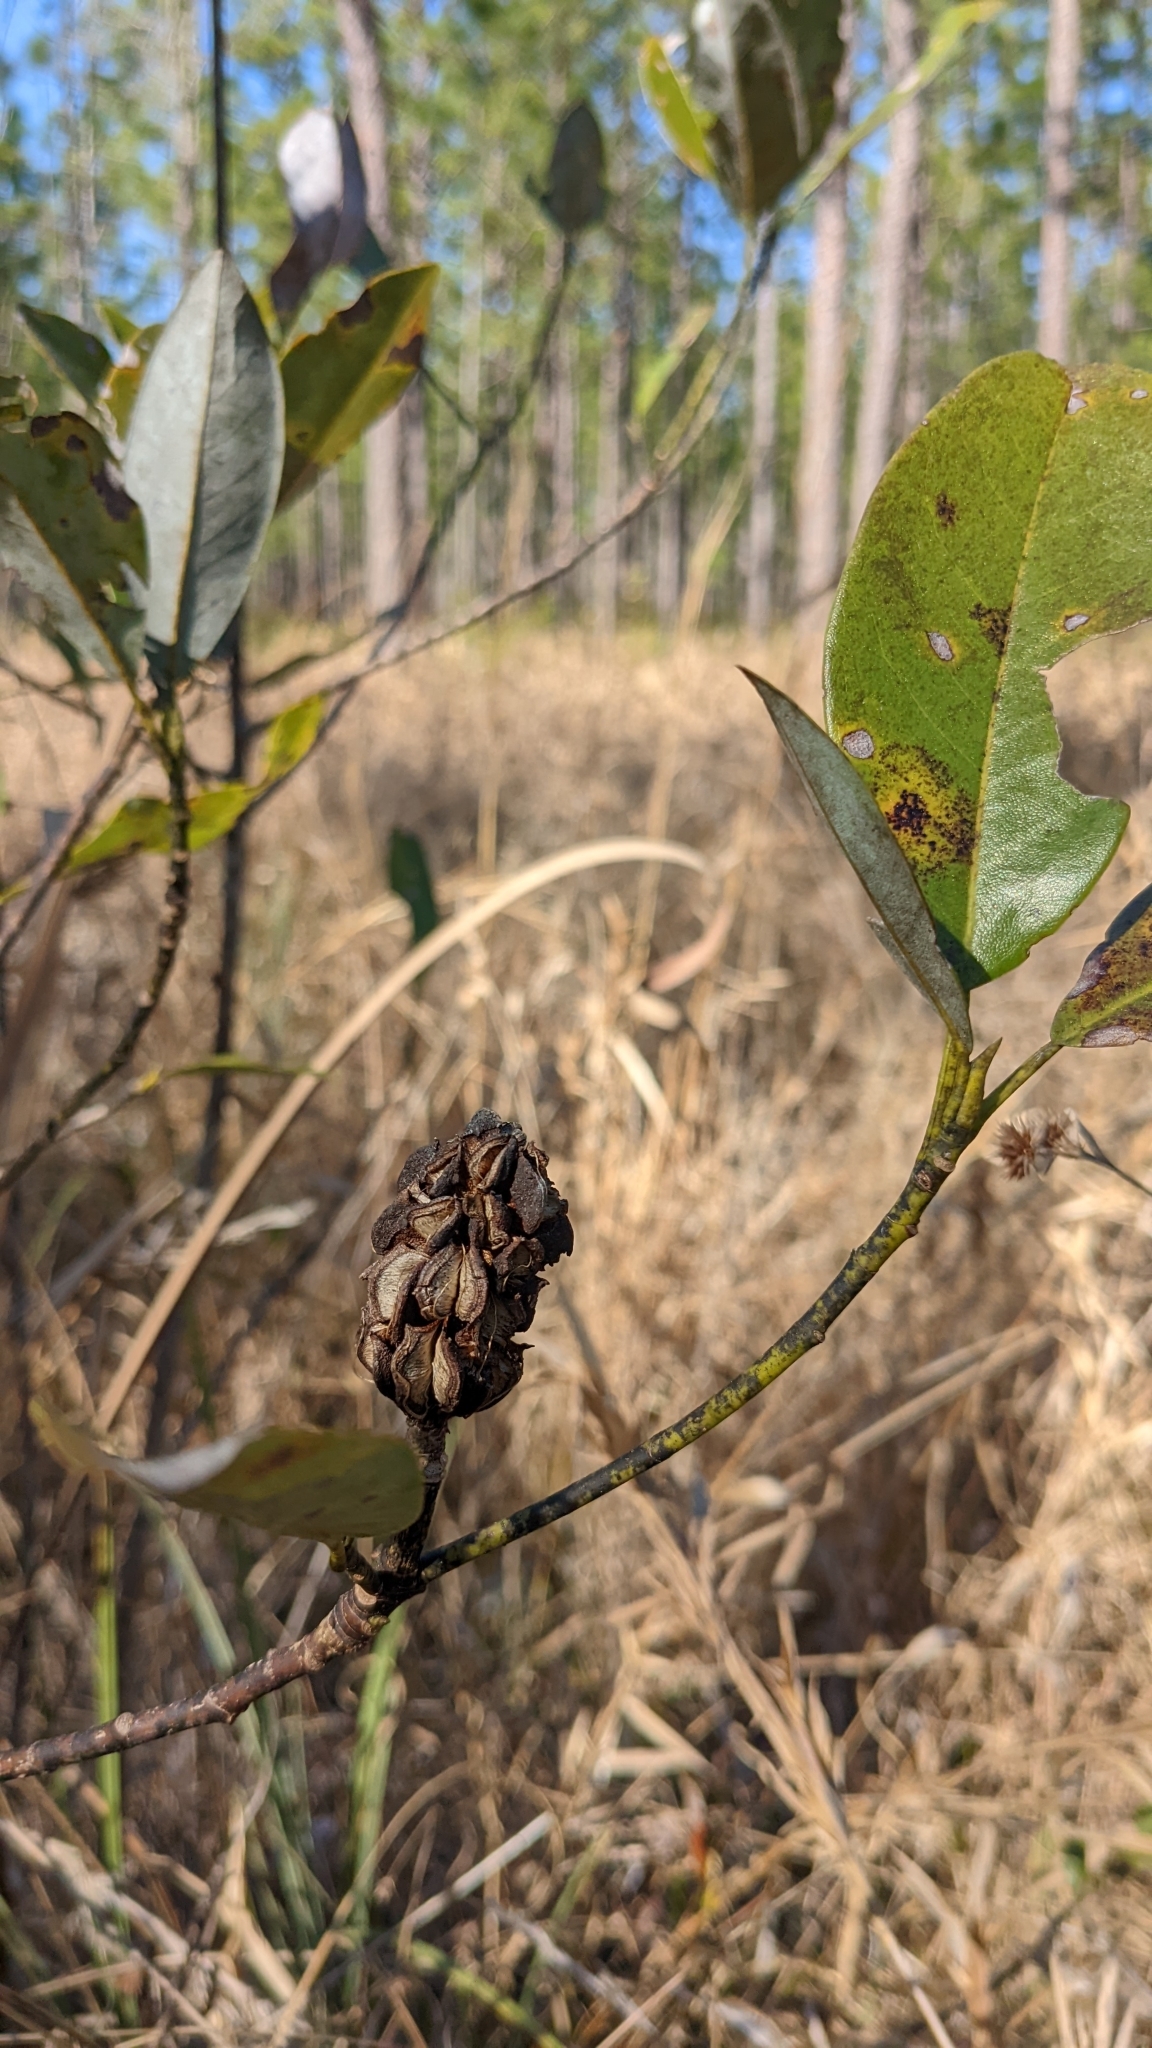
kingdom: Plantae
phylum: Tracheophyta
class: Magnoliopsida
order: Magnoliales
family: Magnoliaceae
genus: Magnolia
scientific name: Magnolia virginiana
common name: Swamp bay
